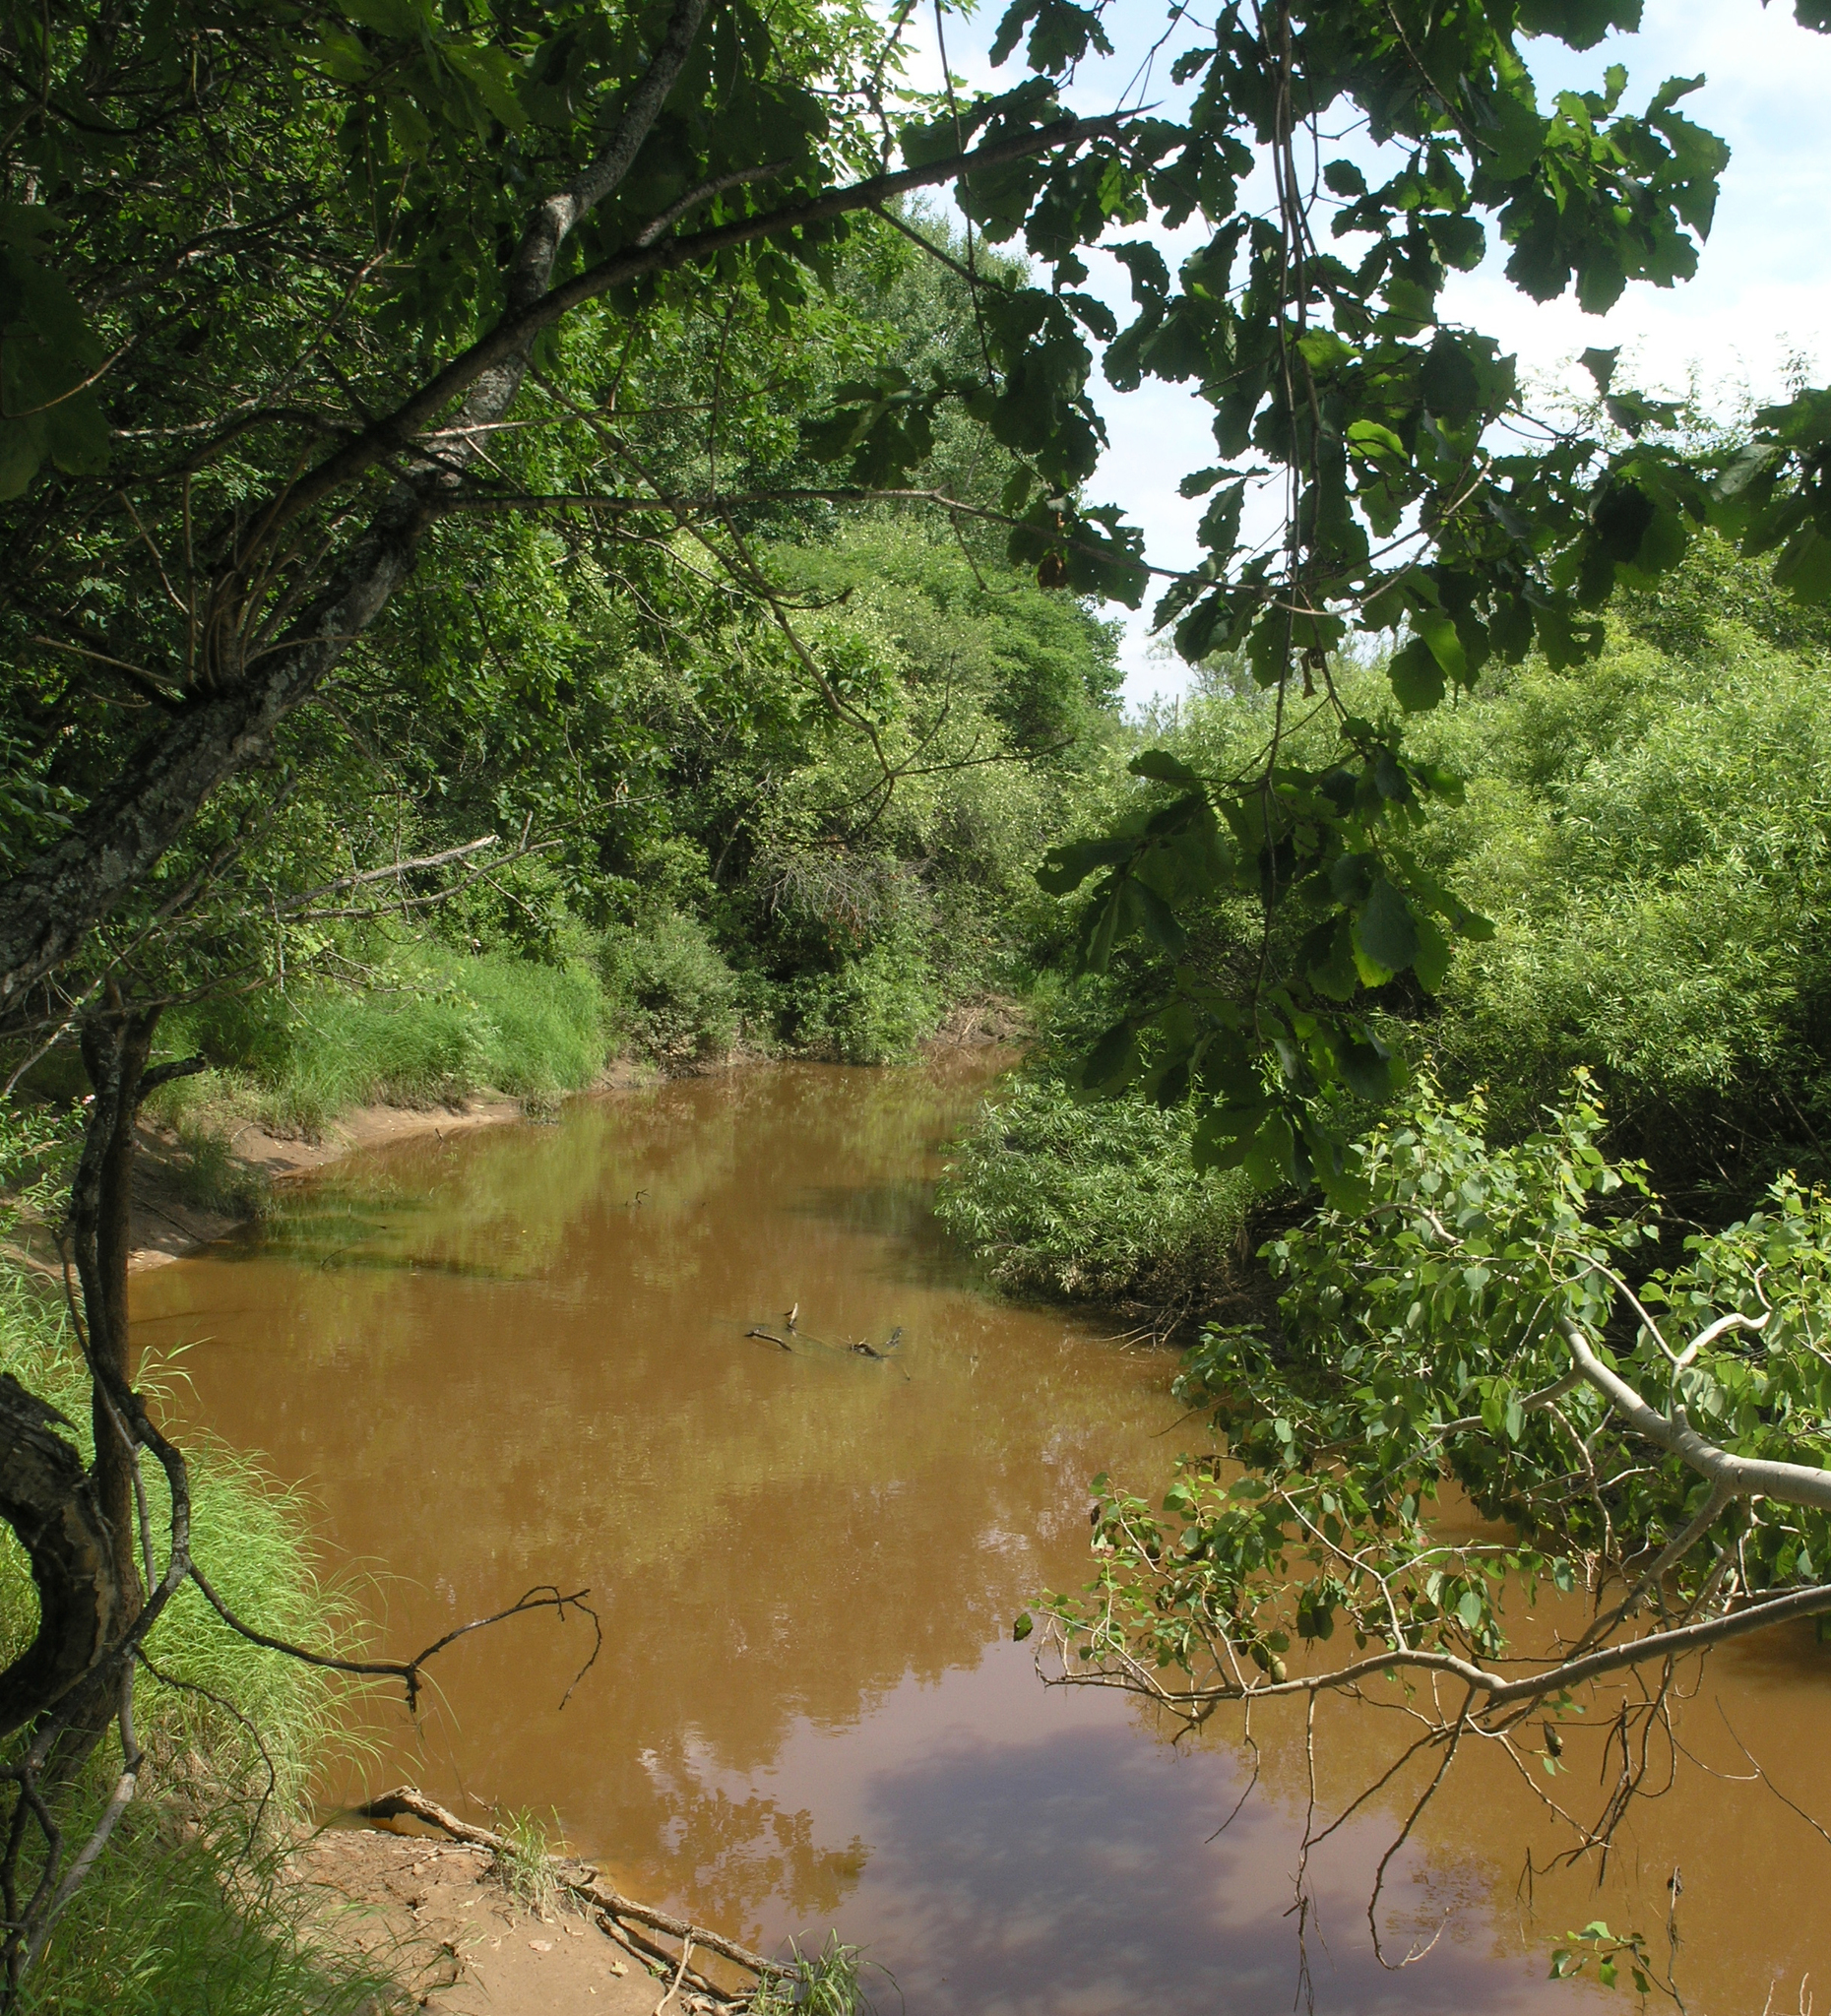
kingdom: Plantae
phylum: Tracheophyta
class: Magnoliopsida
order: Fagales
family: Fagaceae
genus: Quercus
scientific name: Quercus mongolica
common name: Mongolian oak
